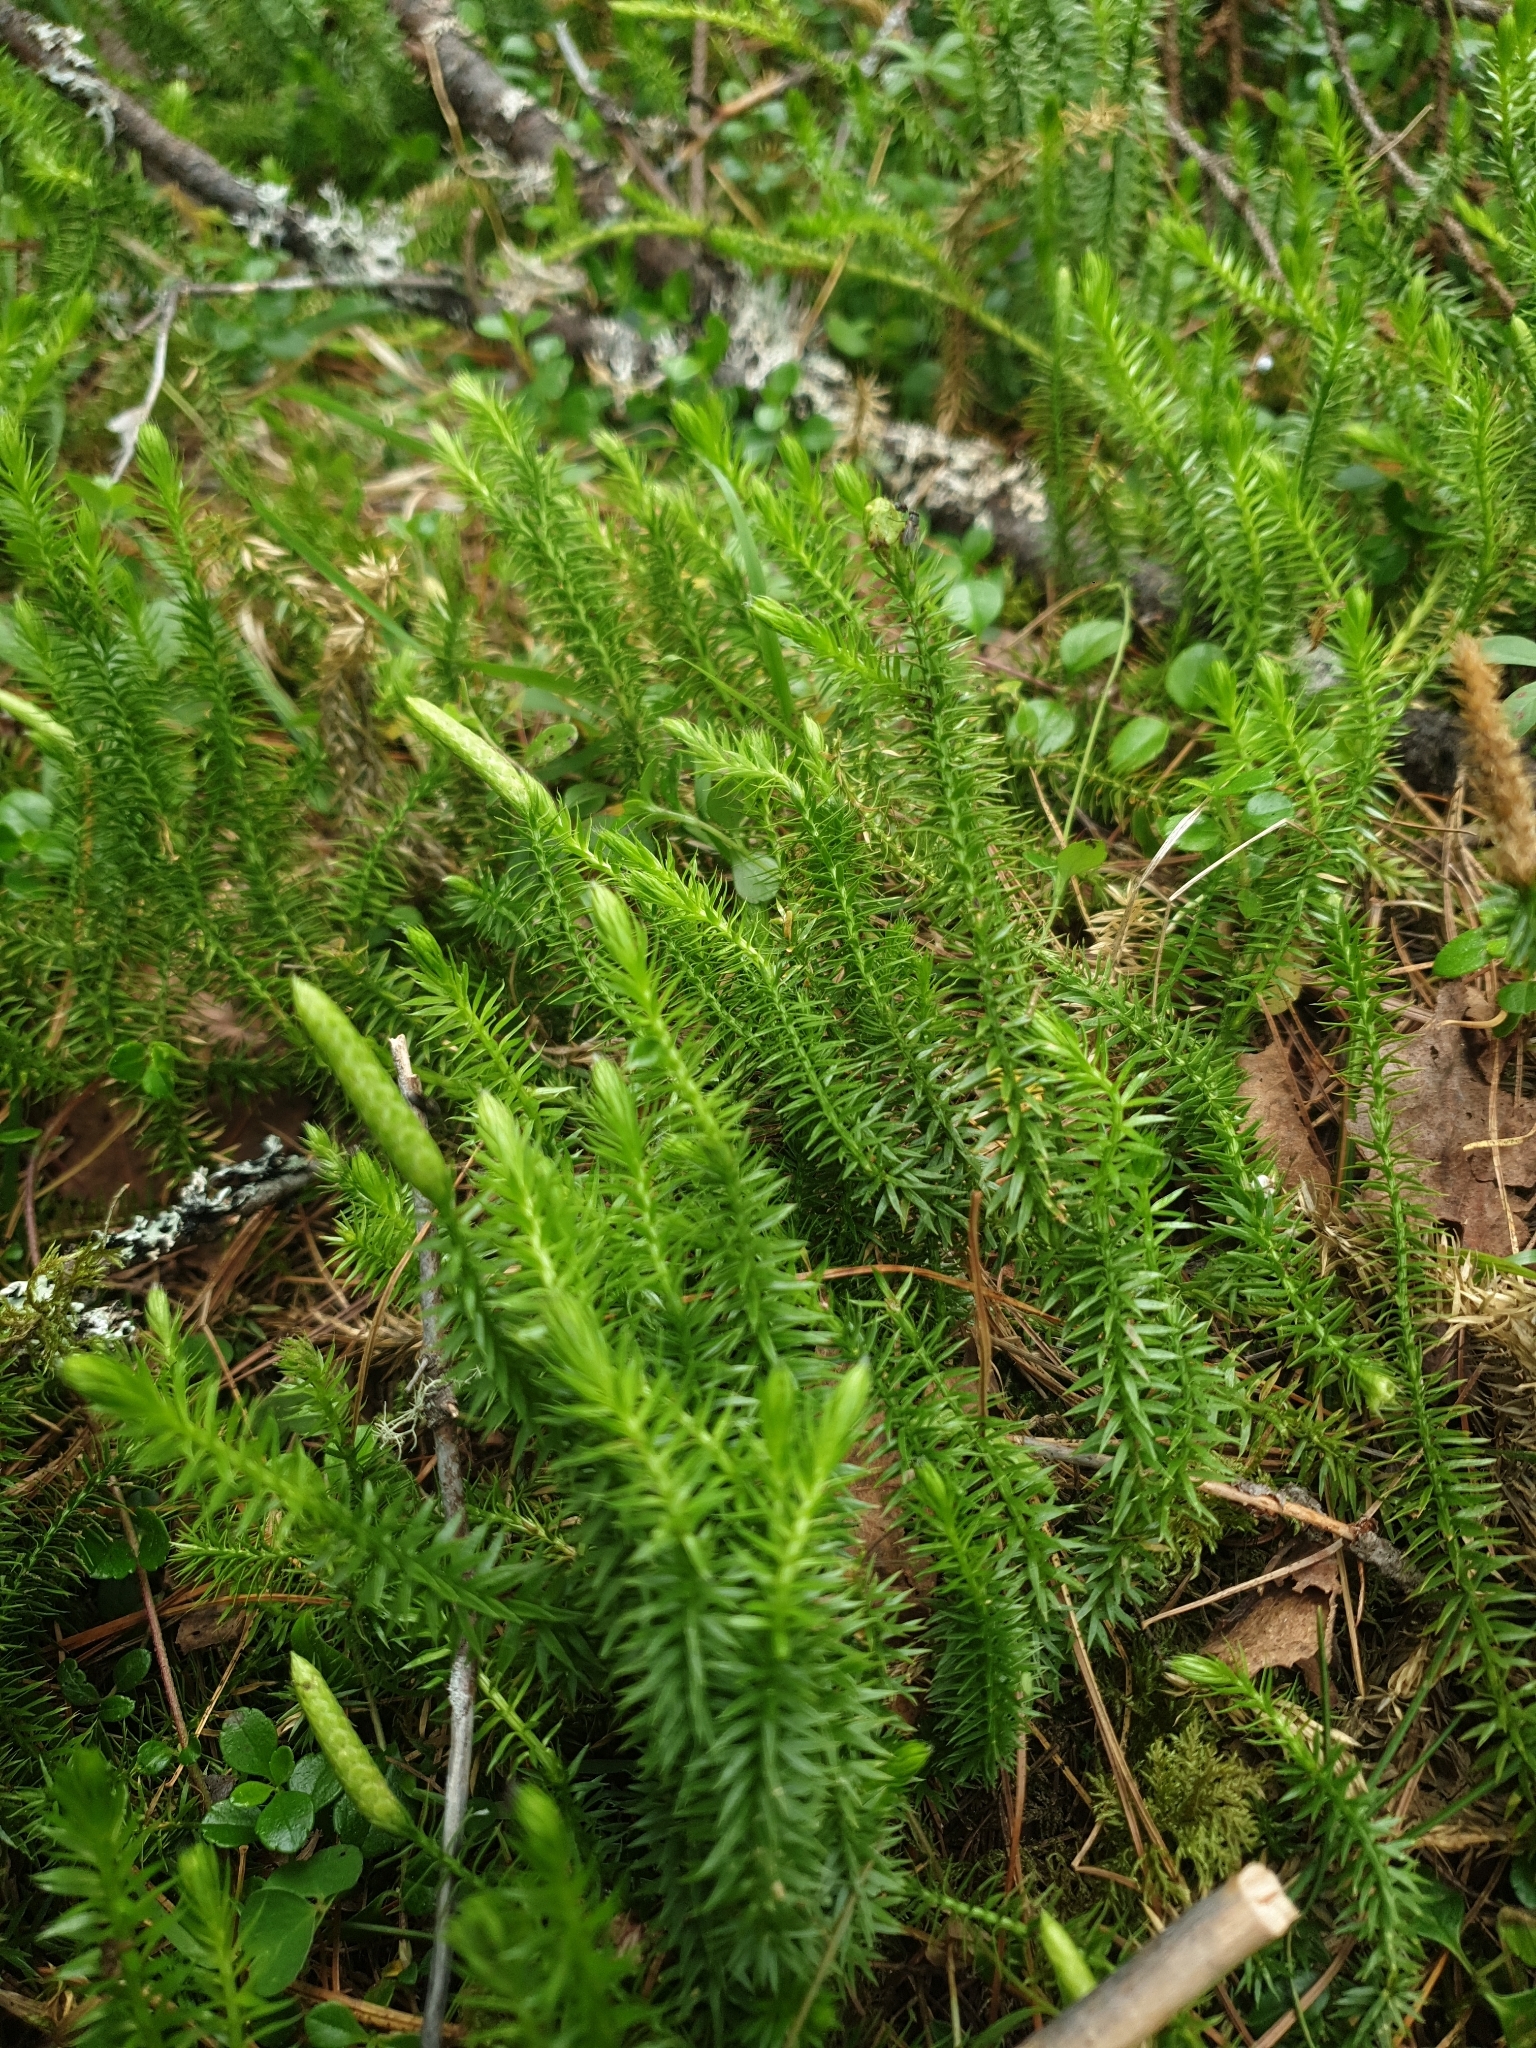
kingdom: Plantae
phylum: Tracheophyta
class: Lycopodiopsida
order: Lycopodiales
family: Lycopodiaceae
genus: Spinulum
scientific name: Spinulum annotinum
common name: Interrupted club-moss
